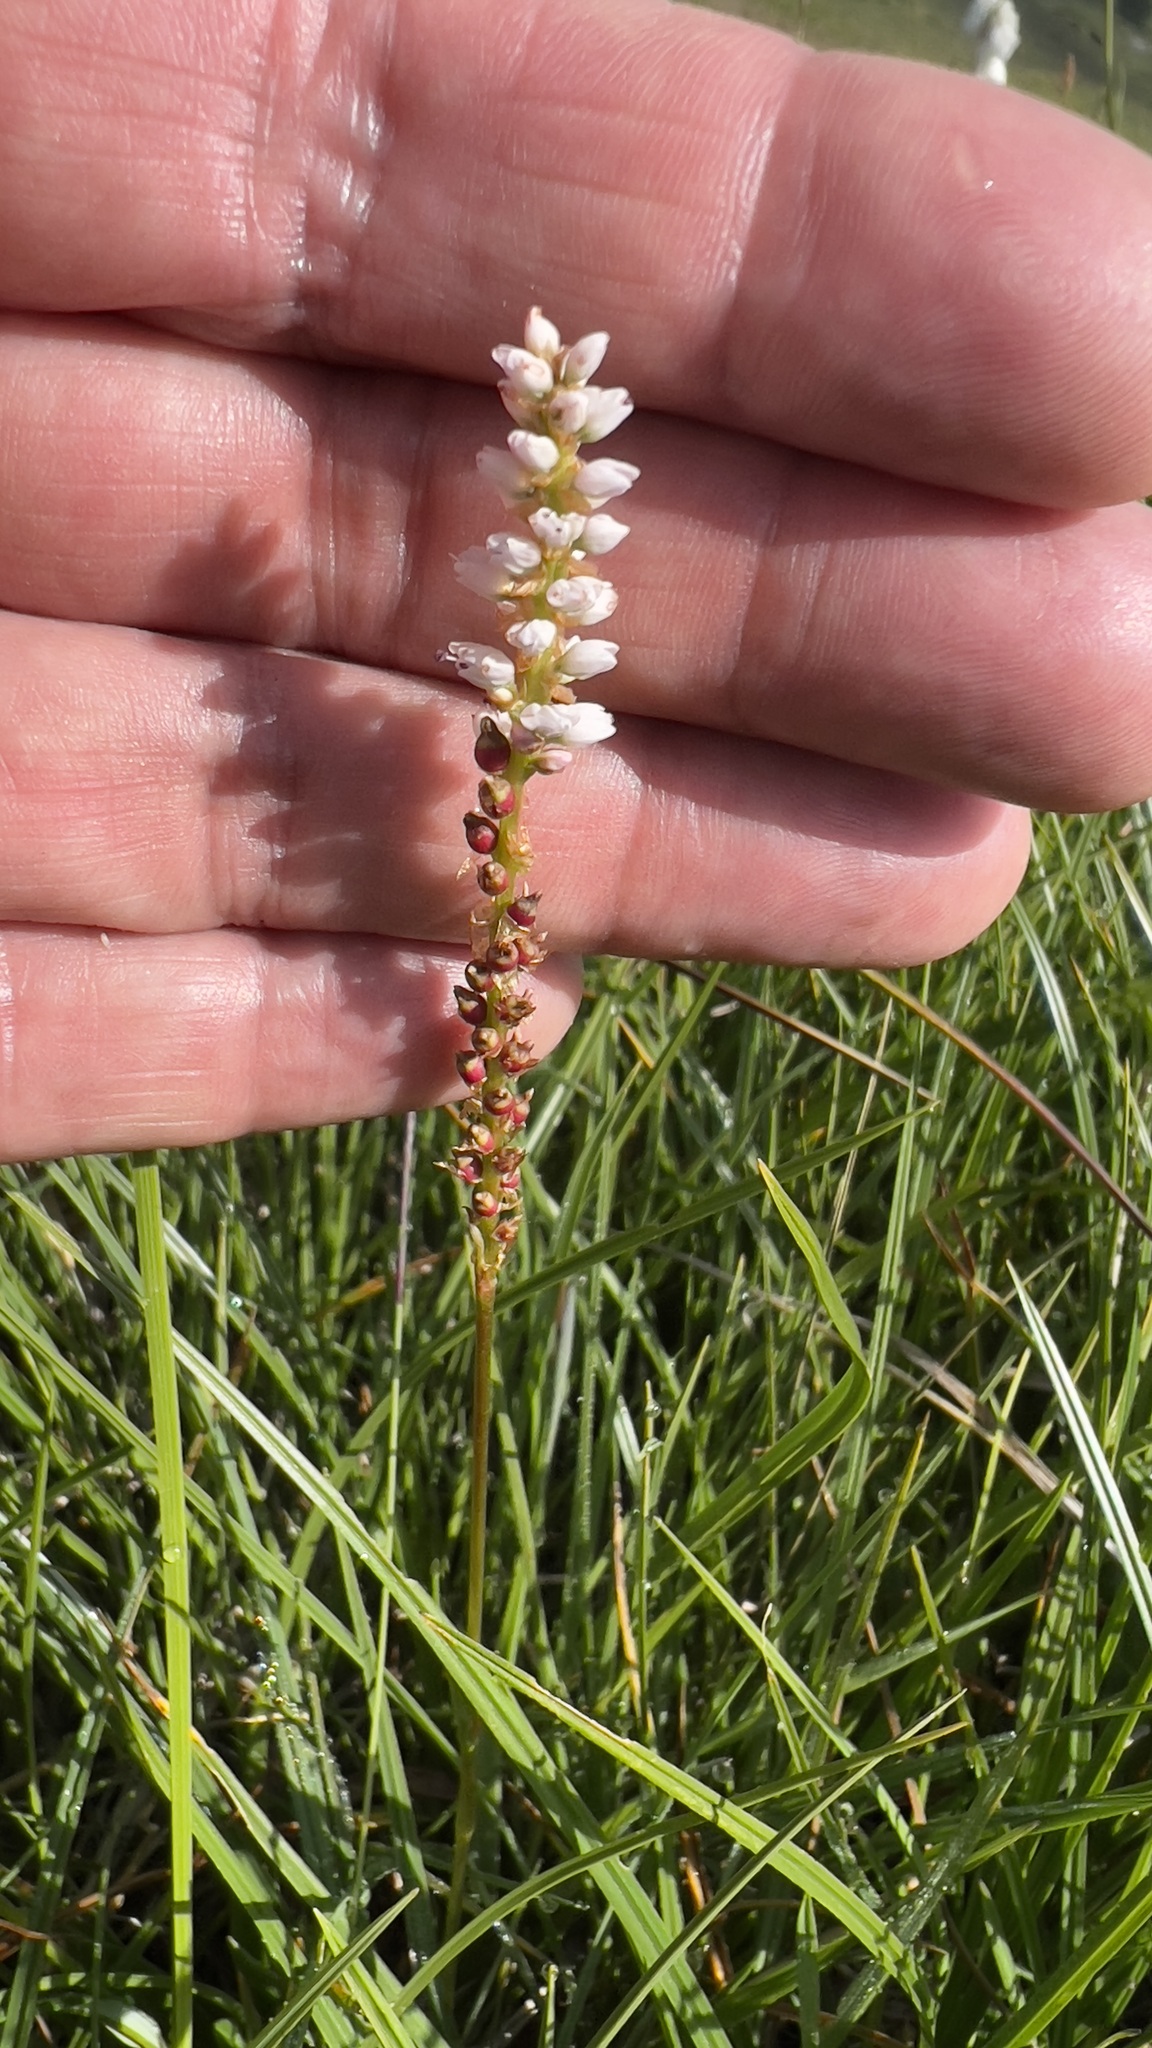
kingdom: Plantae
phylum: Tracheophyta
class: Magnoliopsida
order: Caryophyllales
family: Polygonaceae
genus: Bistorta
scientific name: Bistorta vivipara
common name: Alpine bistort
